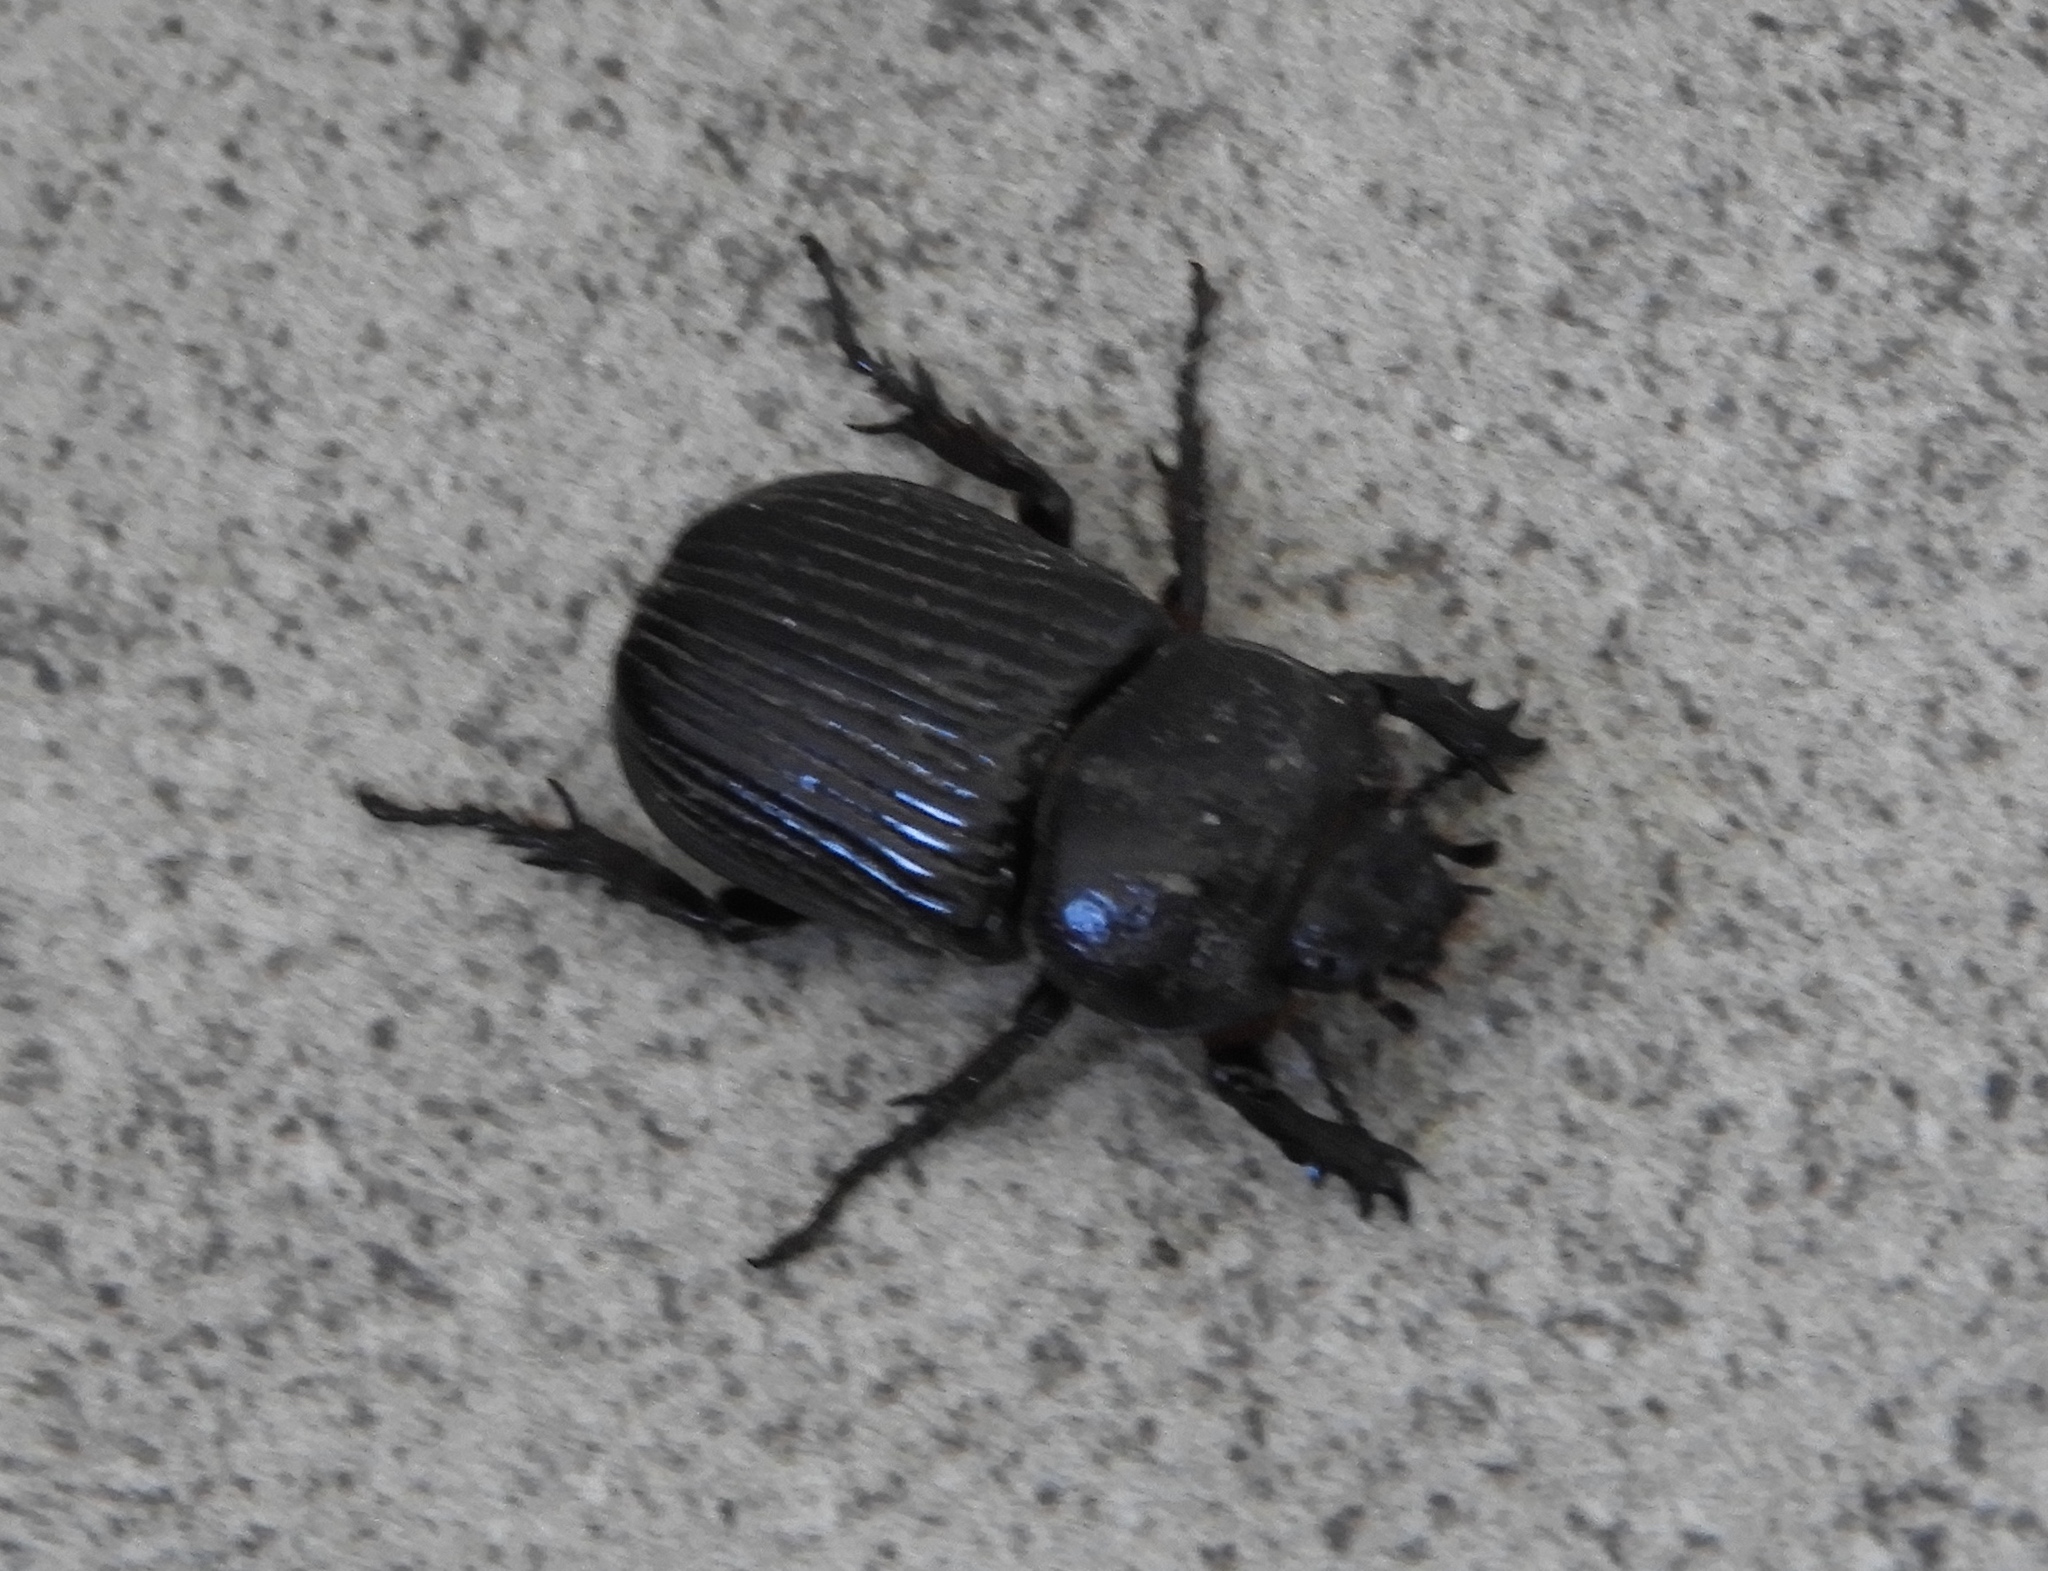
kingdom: Animalia
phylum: Arthropoda
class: Insecta
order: Coleoptera
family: Scarabaeidae
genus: Phileurus
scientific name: Phileurus
